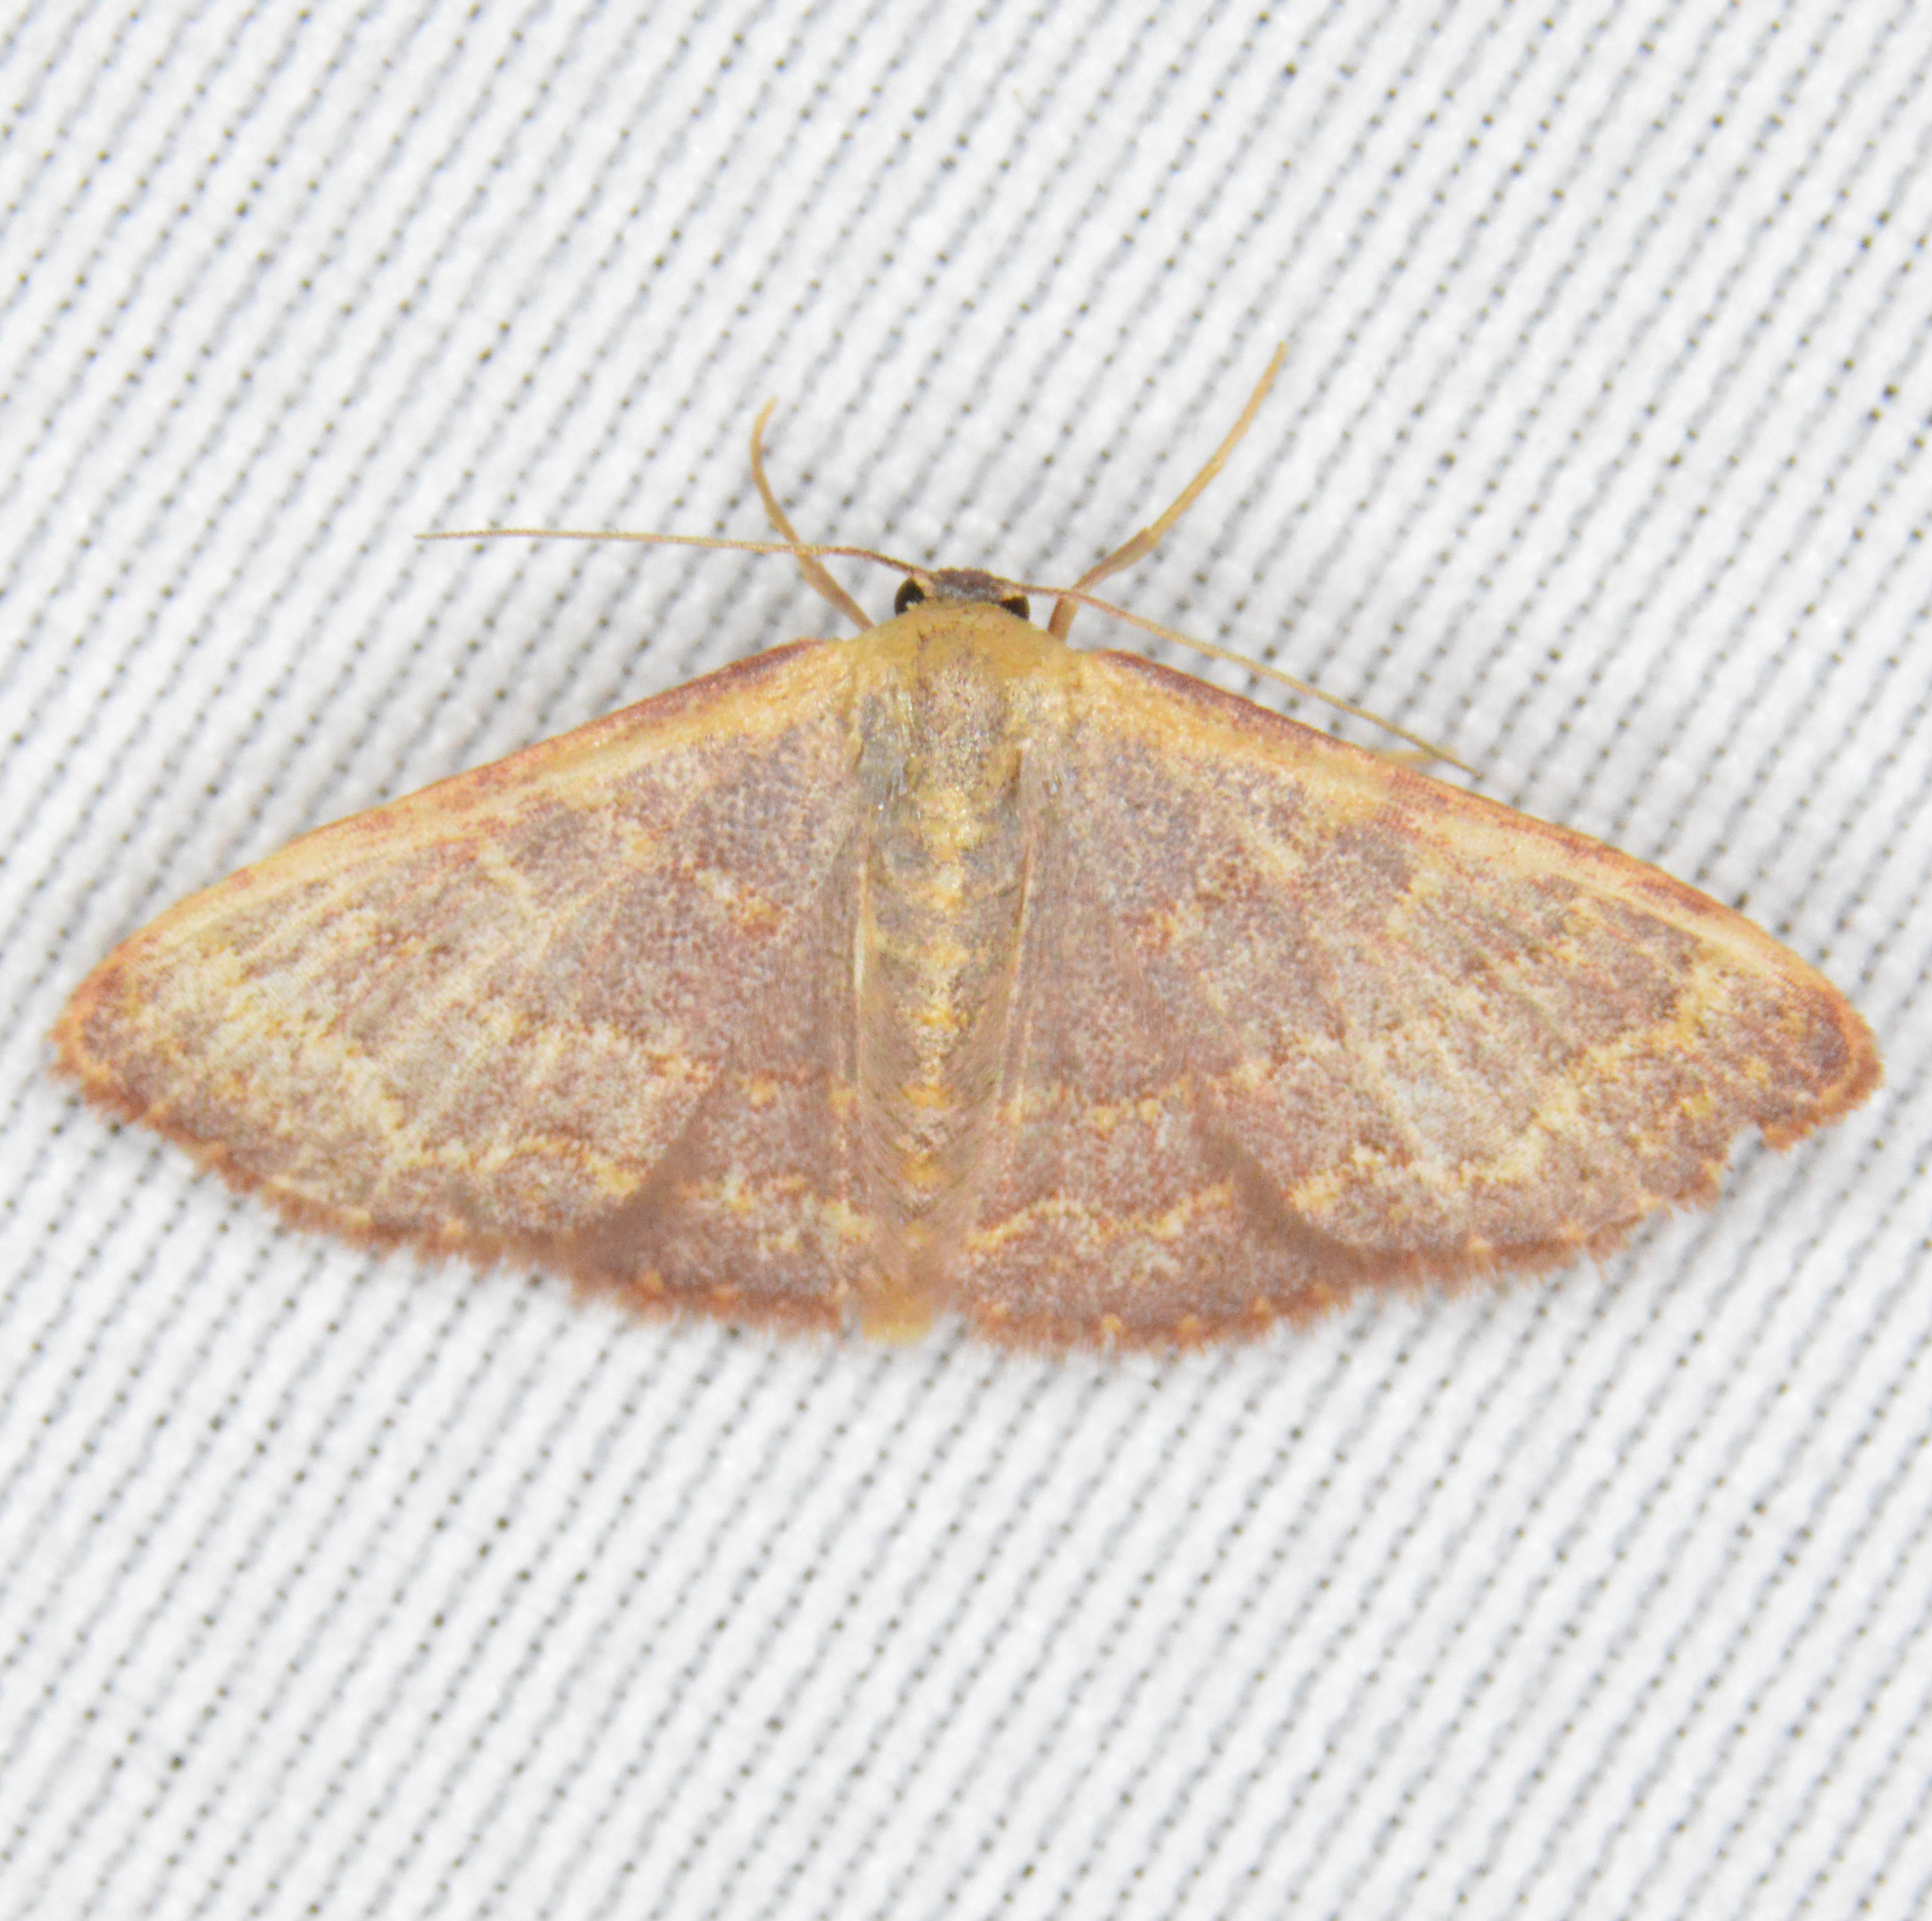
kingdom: Animalia
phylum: Arthropoda
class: Insecta
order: Lepidoptera
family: Geometridae
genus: Leptostales
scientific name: Leptostales pannaria
